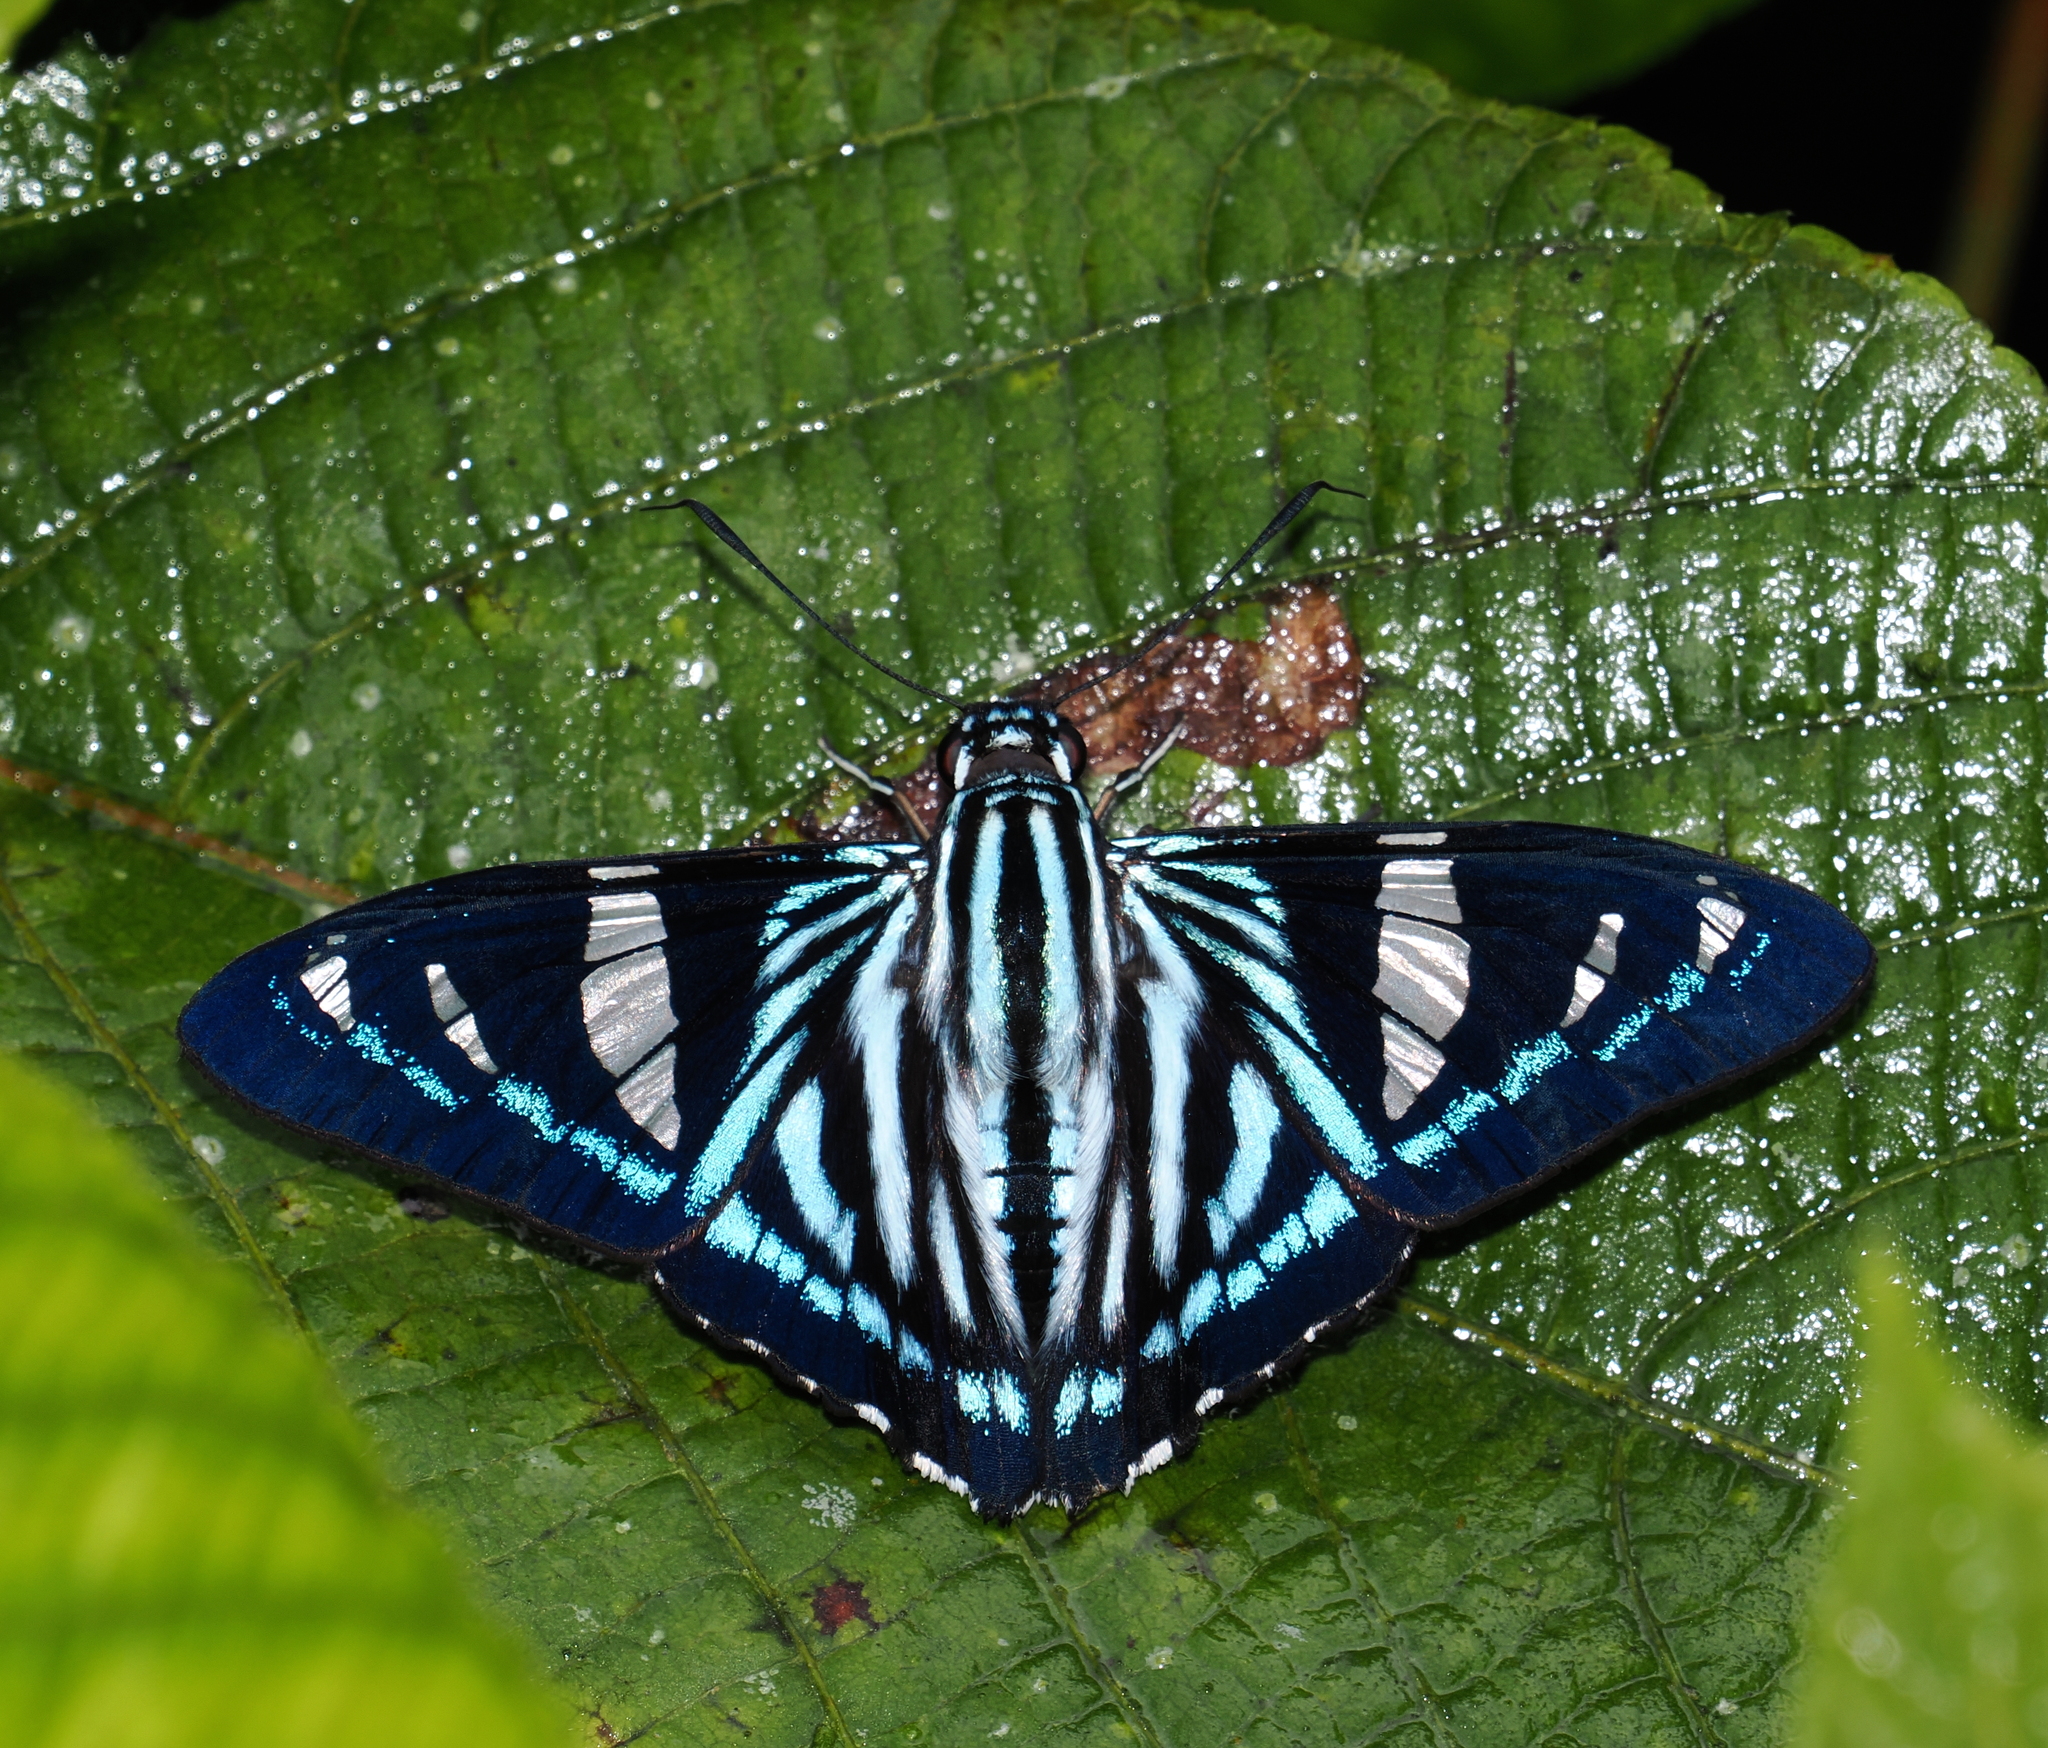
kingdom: Animalia
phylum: Arthropoda
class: Insecta
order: Lepidoptera
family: Hesperiidae
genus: Phocides
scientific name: Phocides pigmalion
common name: Mangrove skipper
